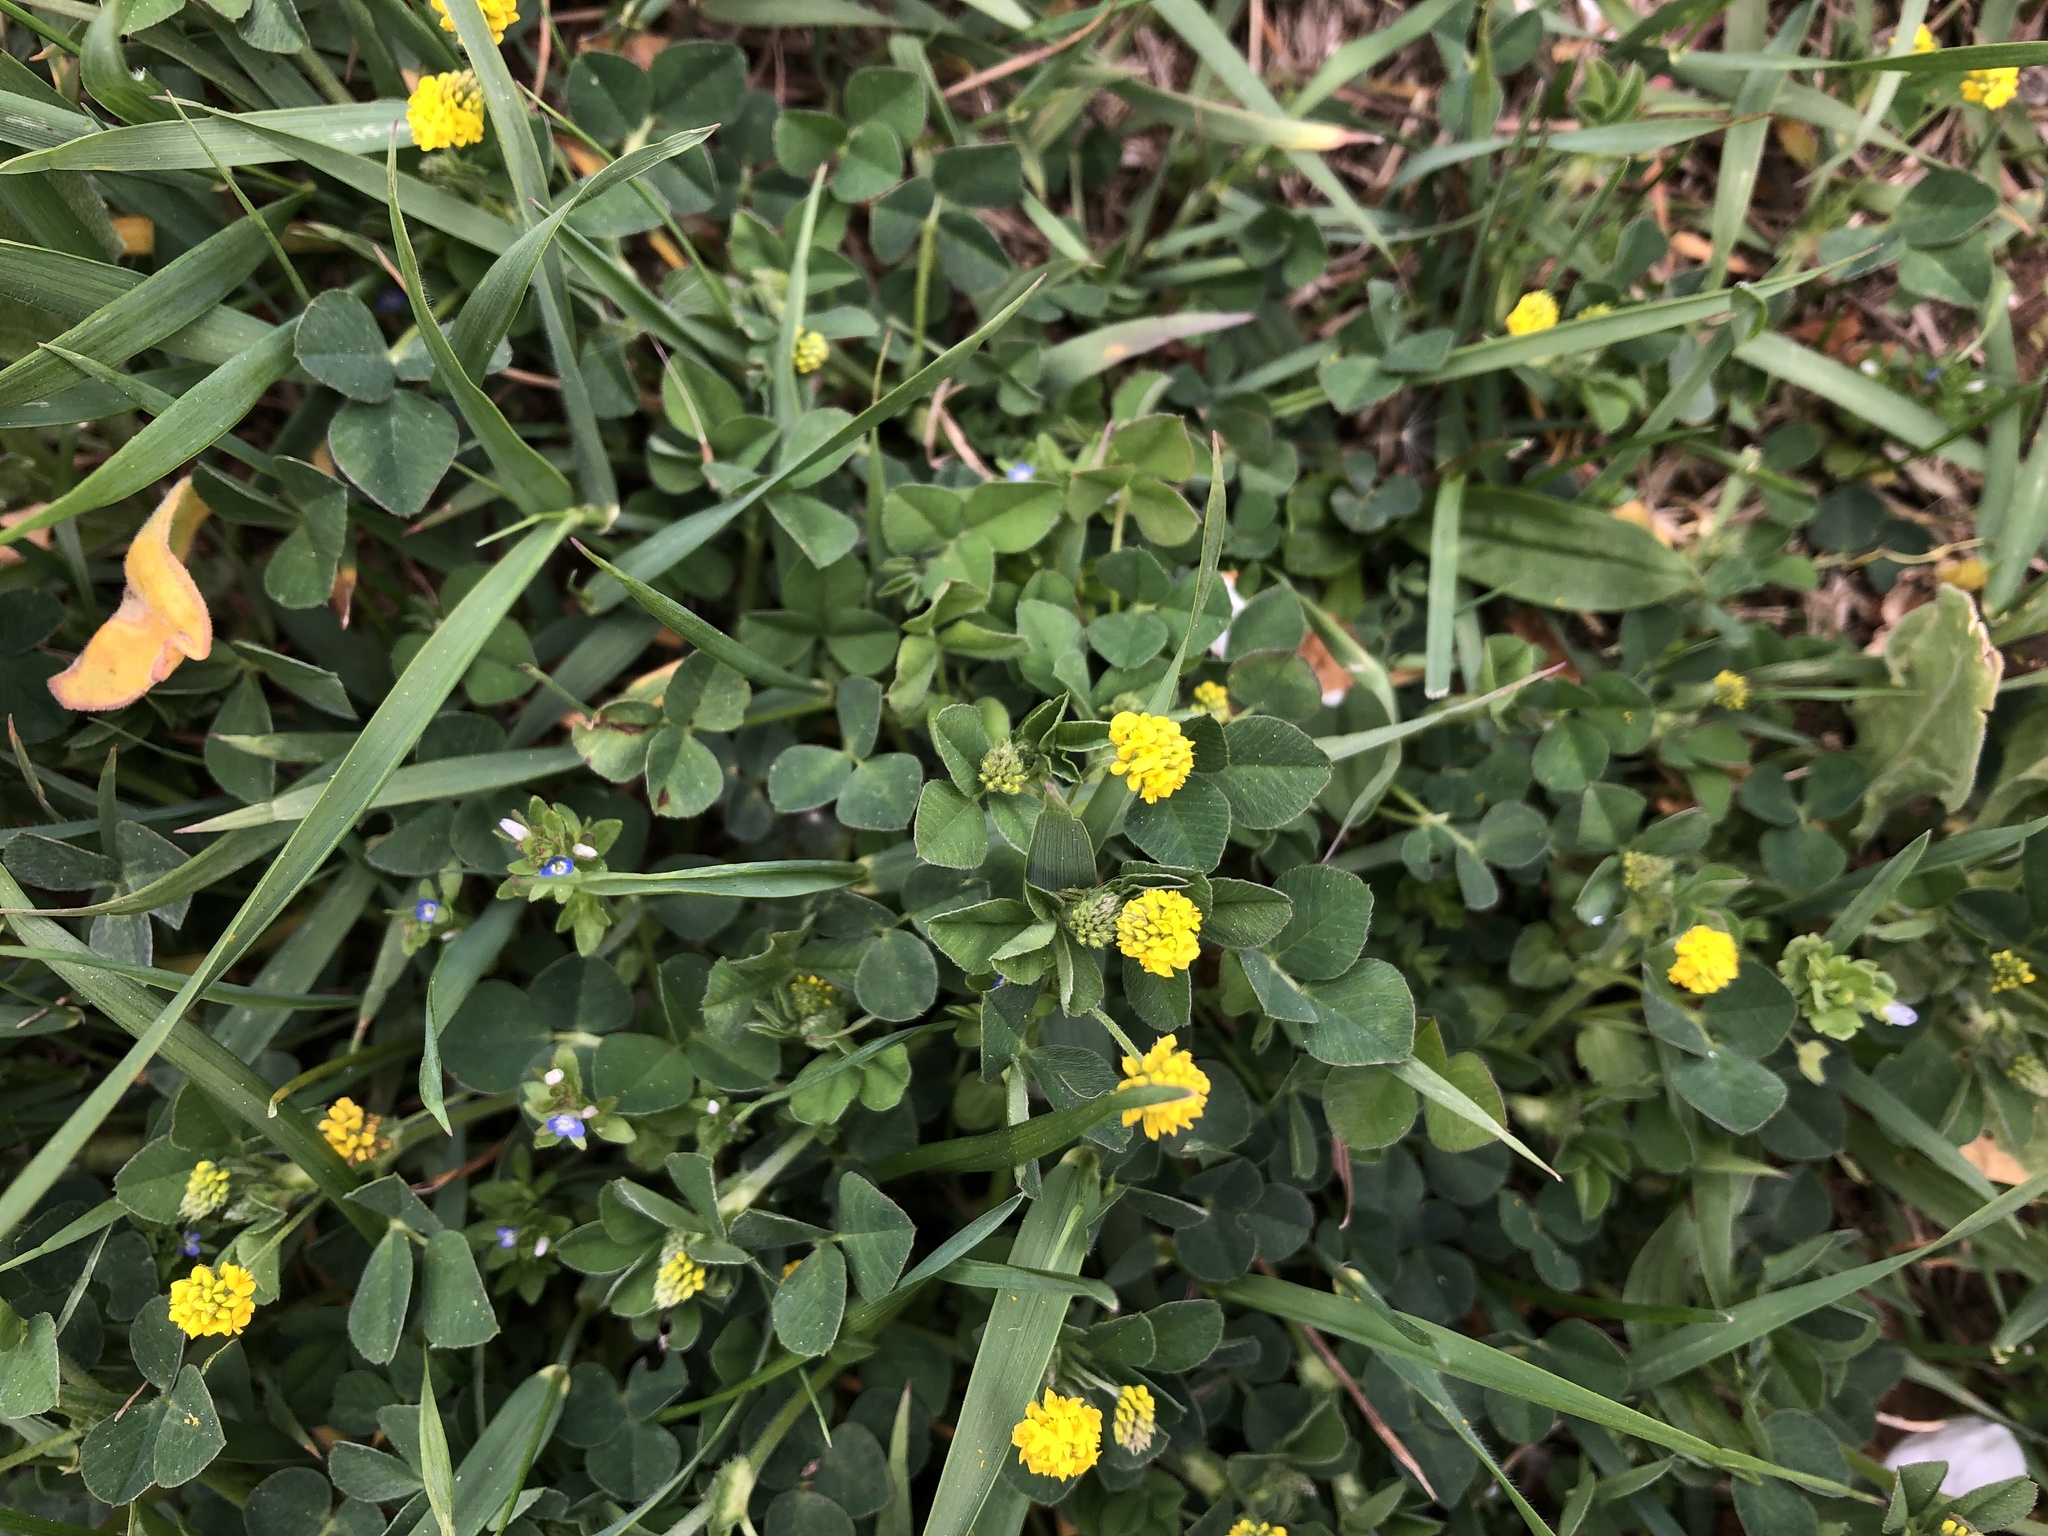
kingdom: Plantae
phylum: Tracheophyta
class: Magnoliopsida
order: Fabales
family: Fabaceae
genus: Medicago
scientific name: Medicago lupulina
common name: Black medick
